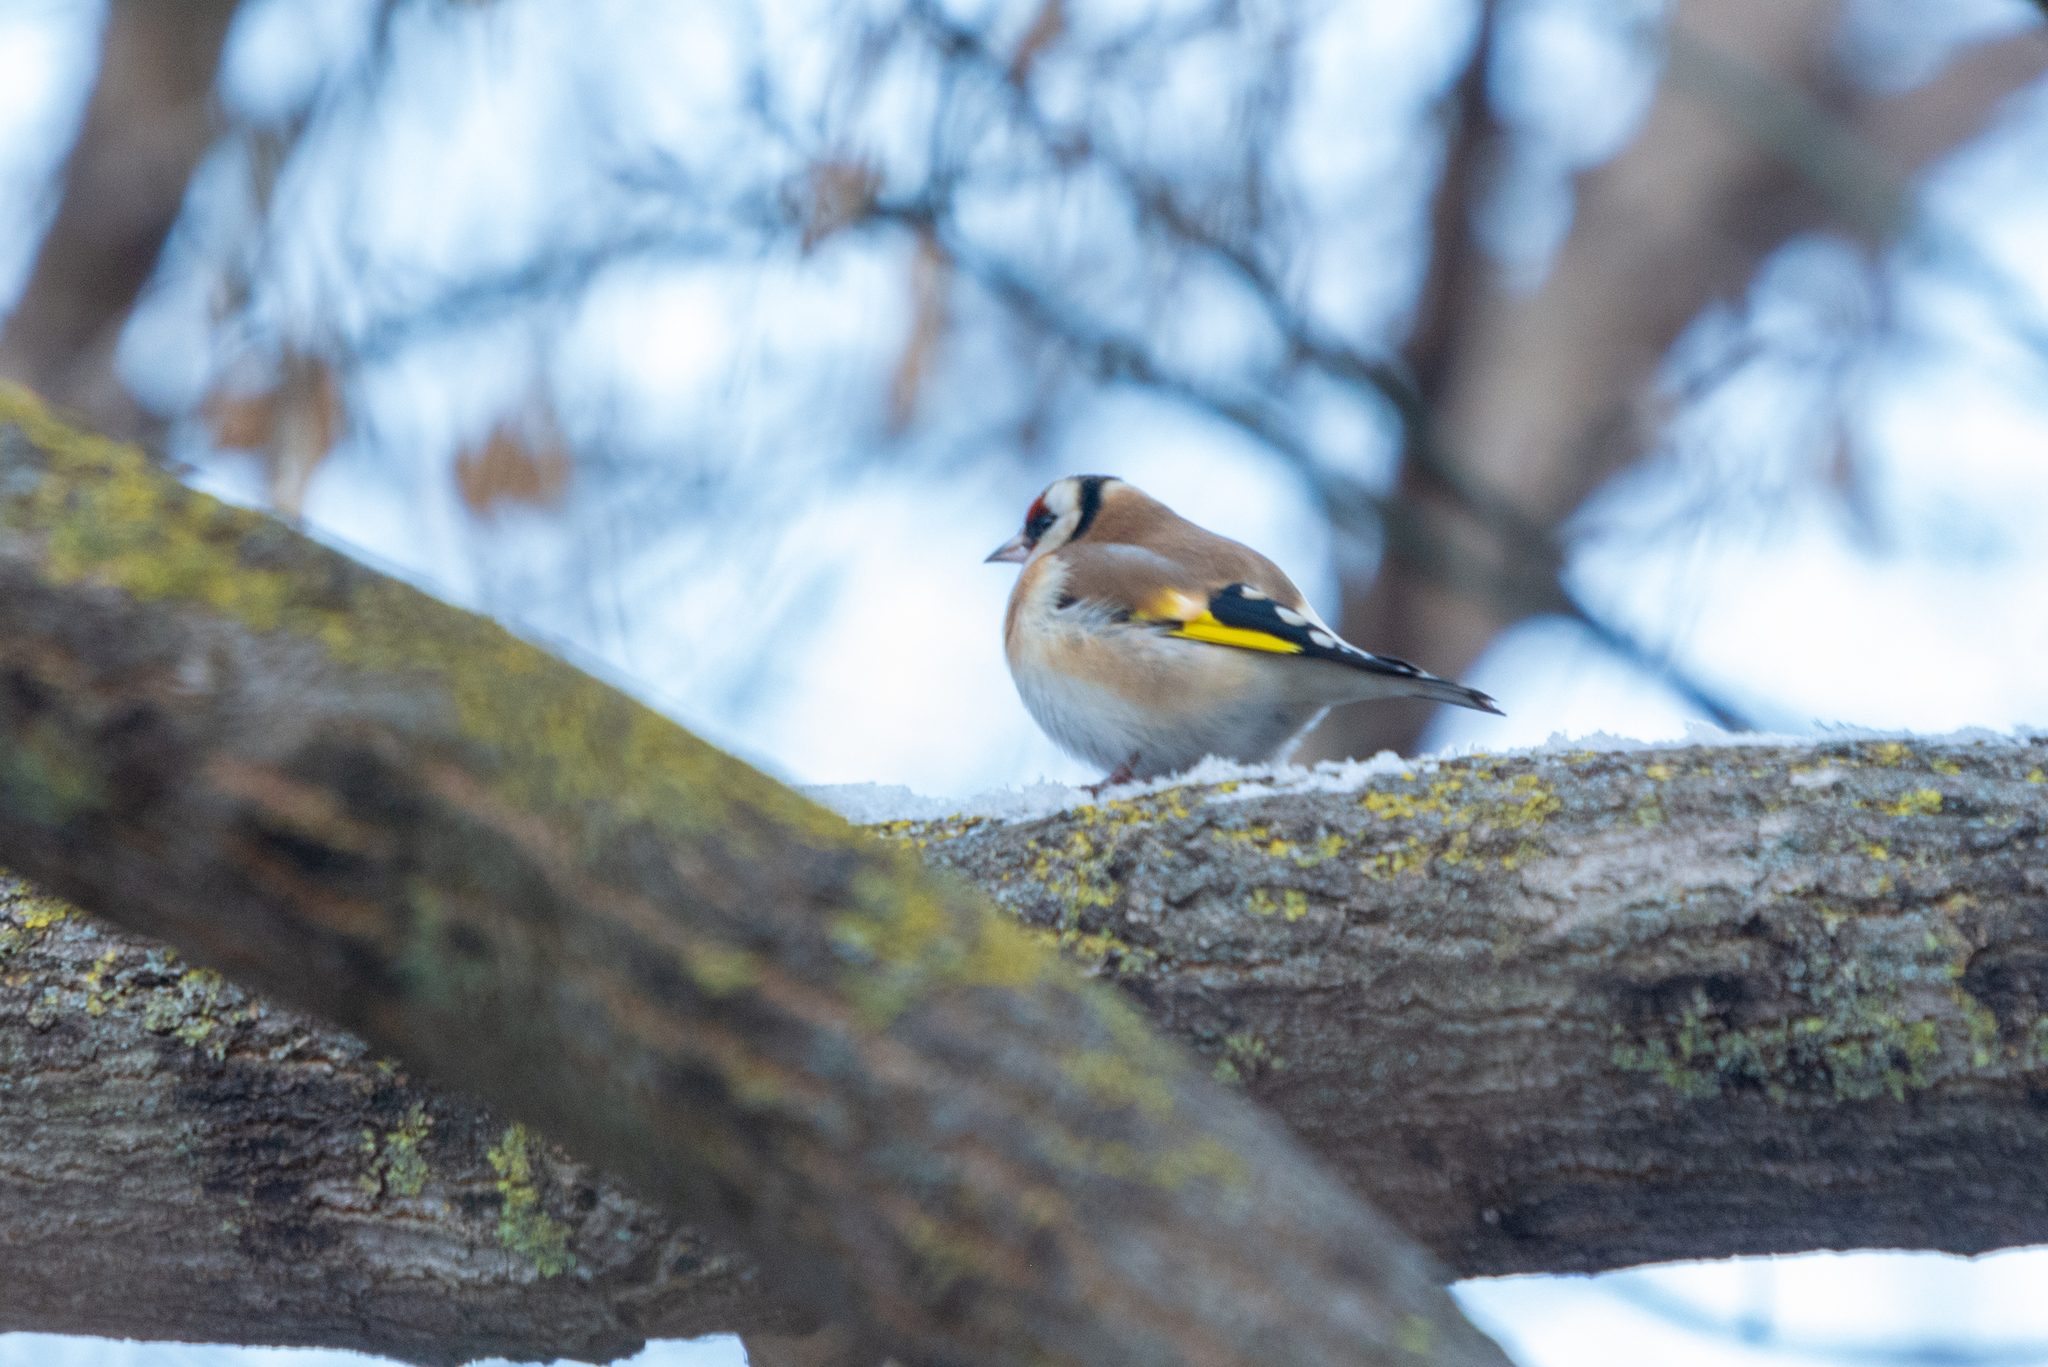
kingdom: Animalia
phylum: Chordata
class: Aves
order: Passeriformes
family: Fringillidae
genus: Carduelis
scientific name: Carduelis carduelis
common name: European goldfinch
